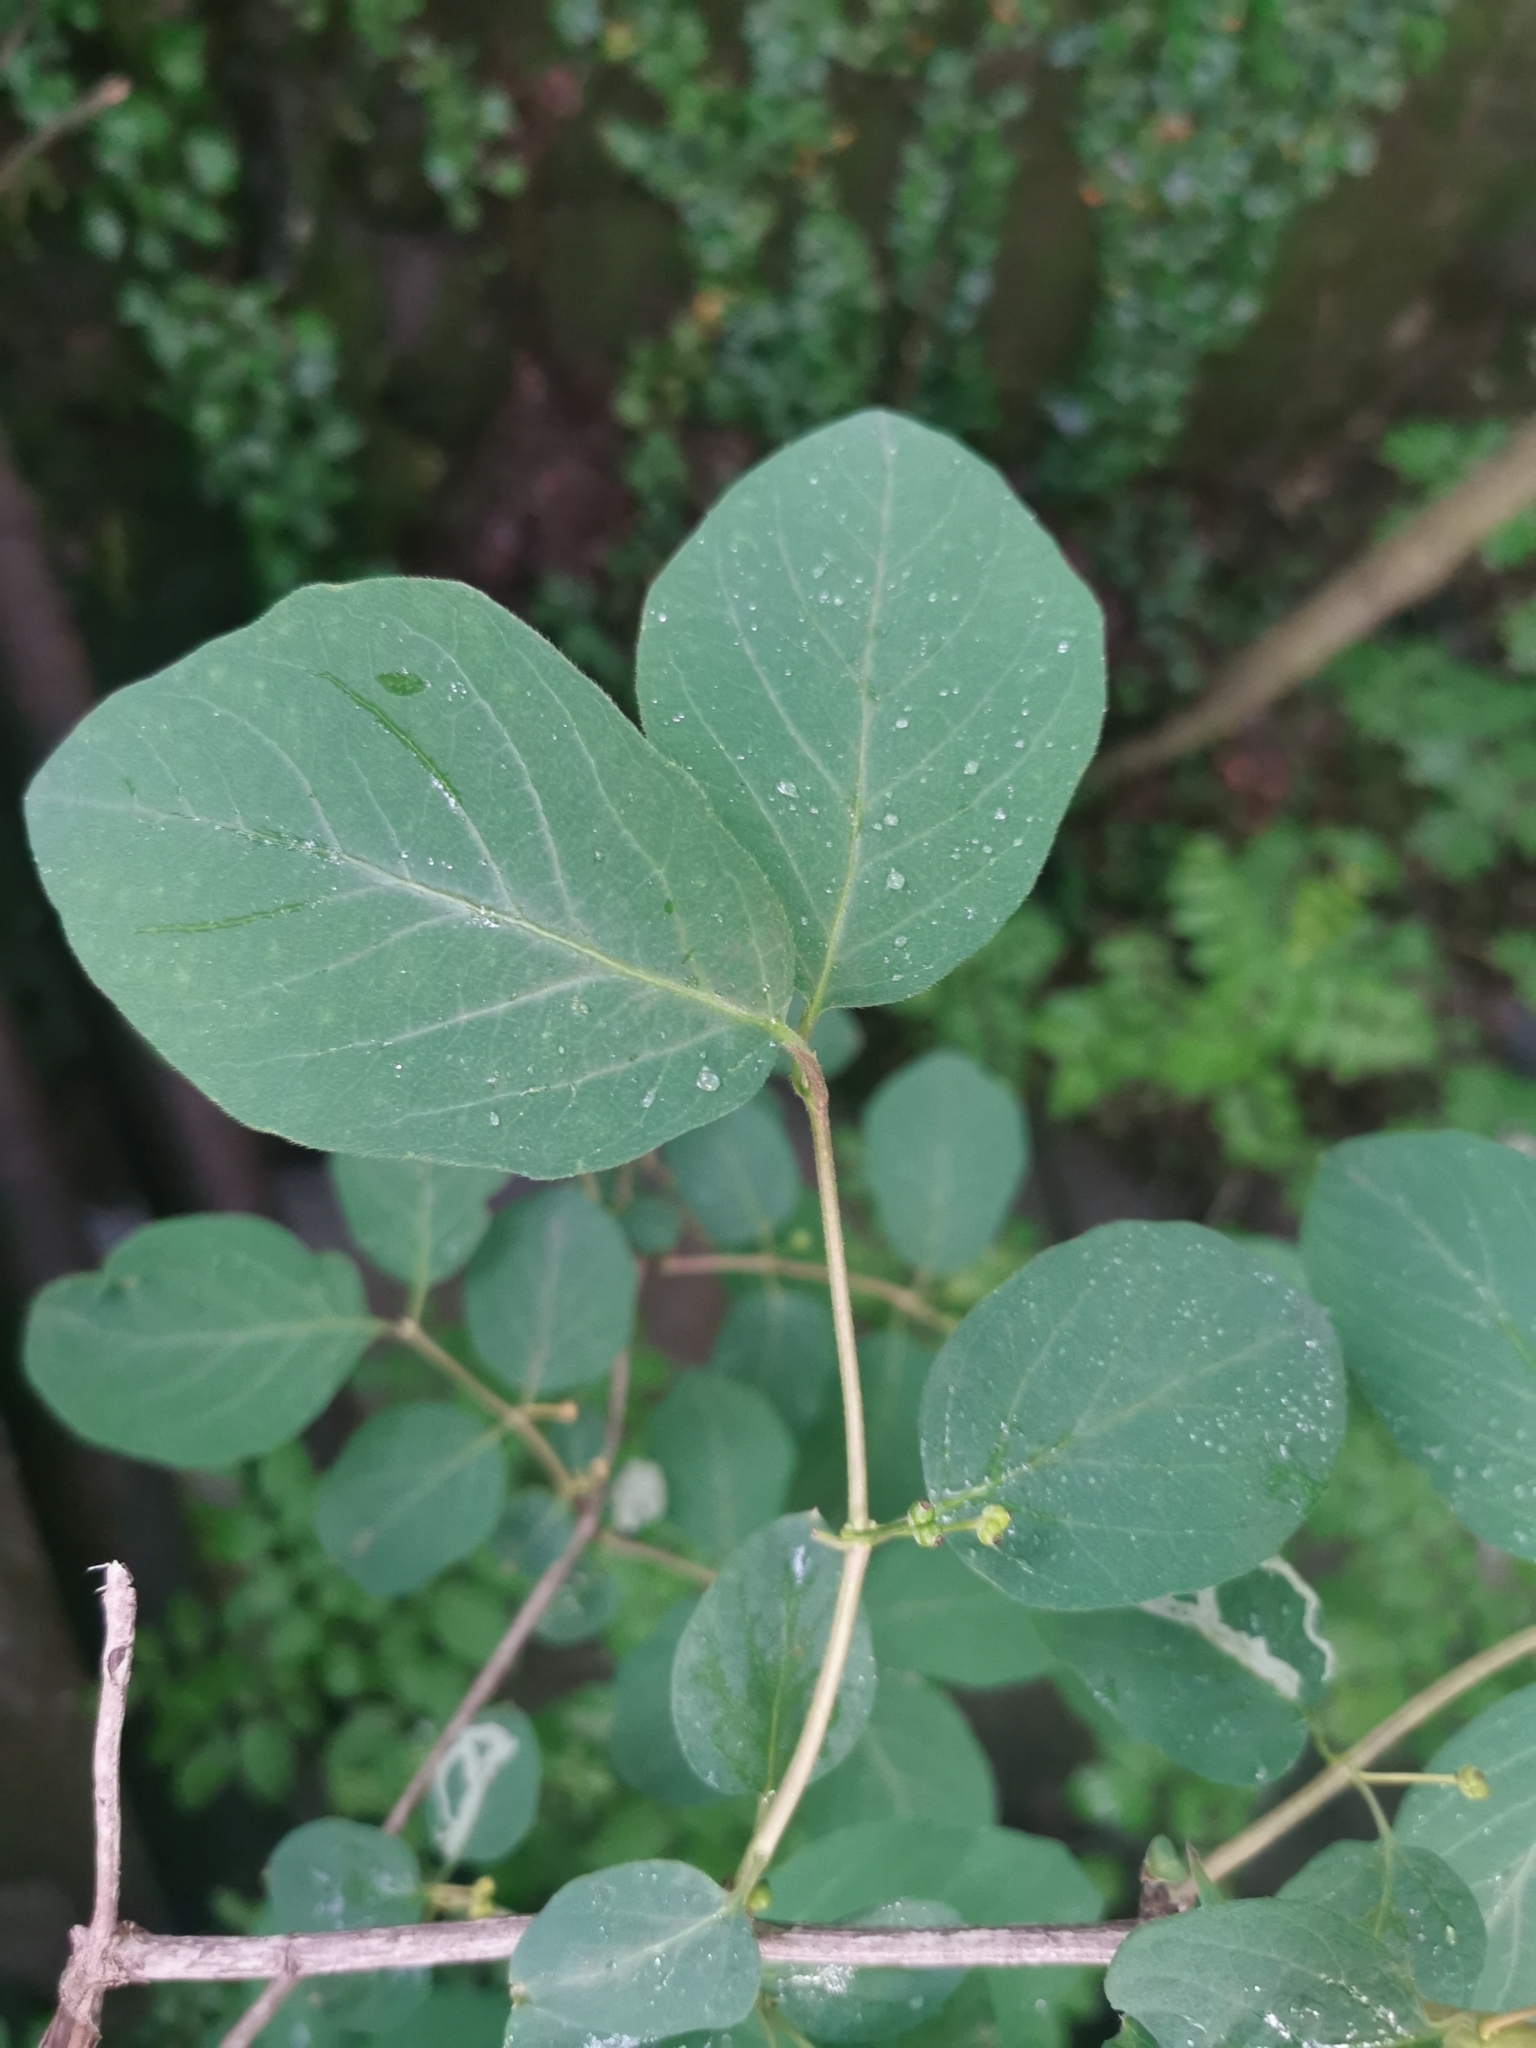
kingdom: Plantae
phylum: Tracheophyta
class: Magnoliopsida
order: Dipsacales
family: Caprifoliaceae
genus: Lonicera
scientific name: Lonicera xylosteum
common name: Fly honeysuckle
